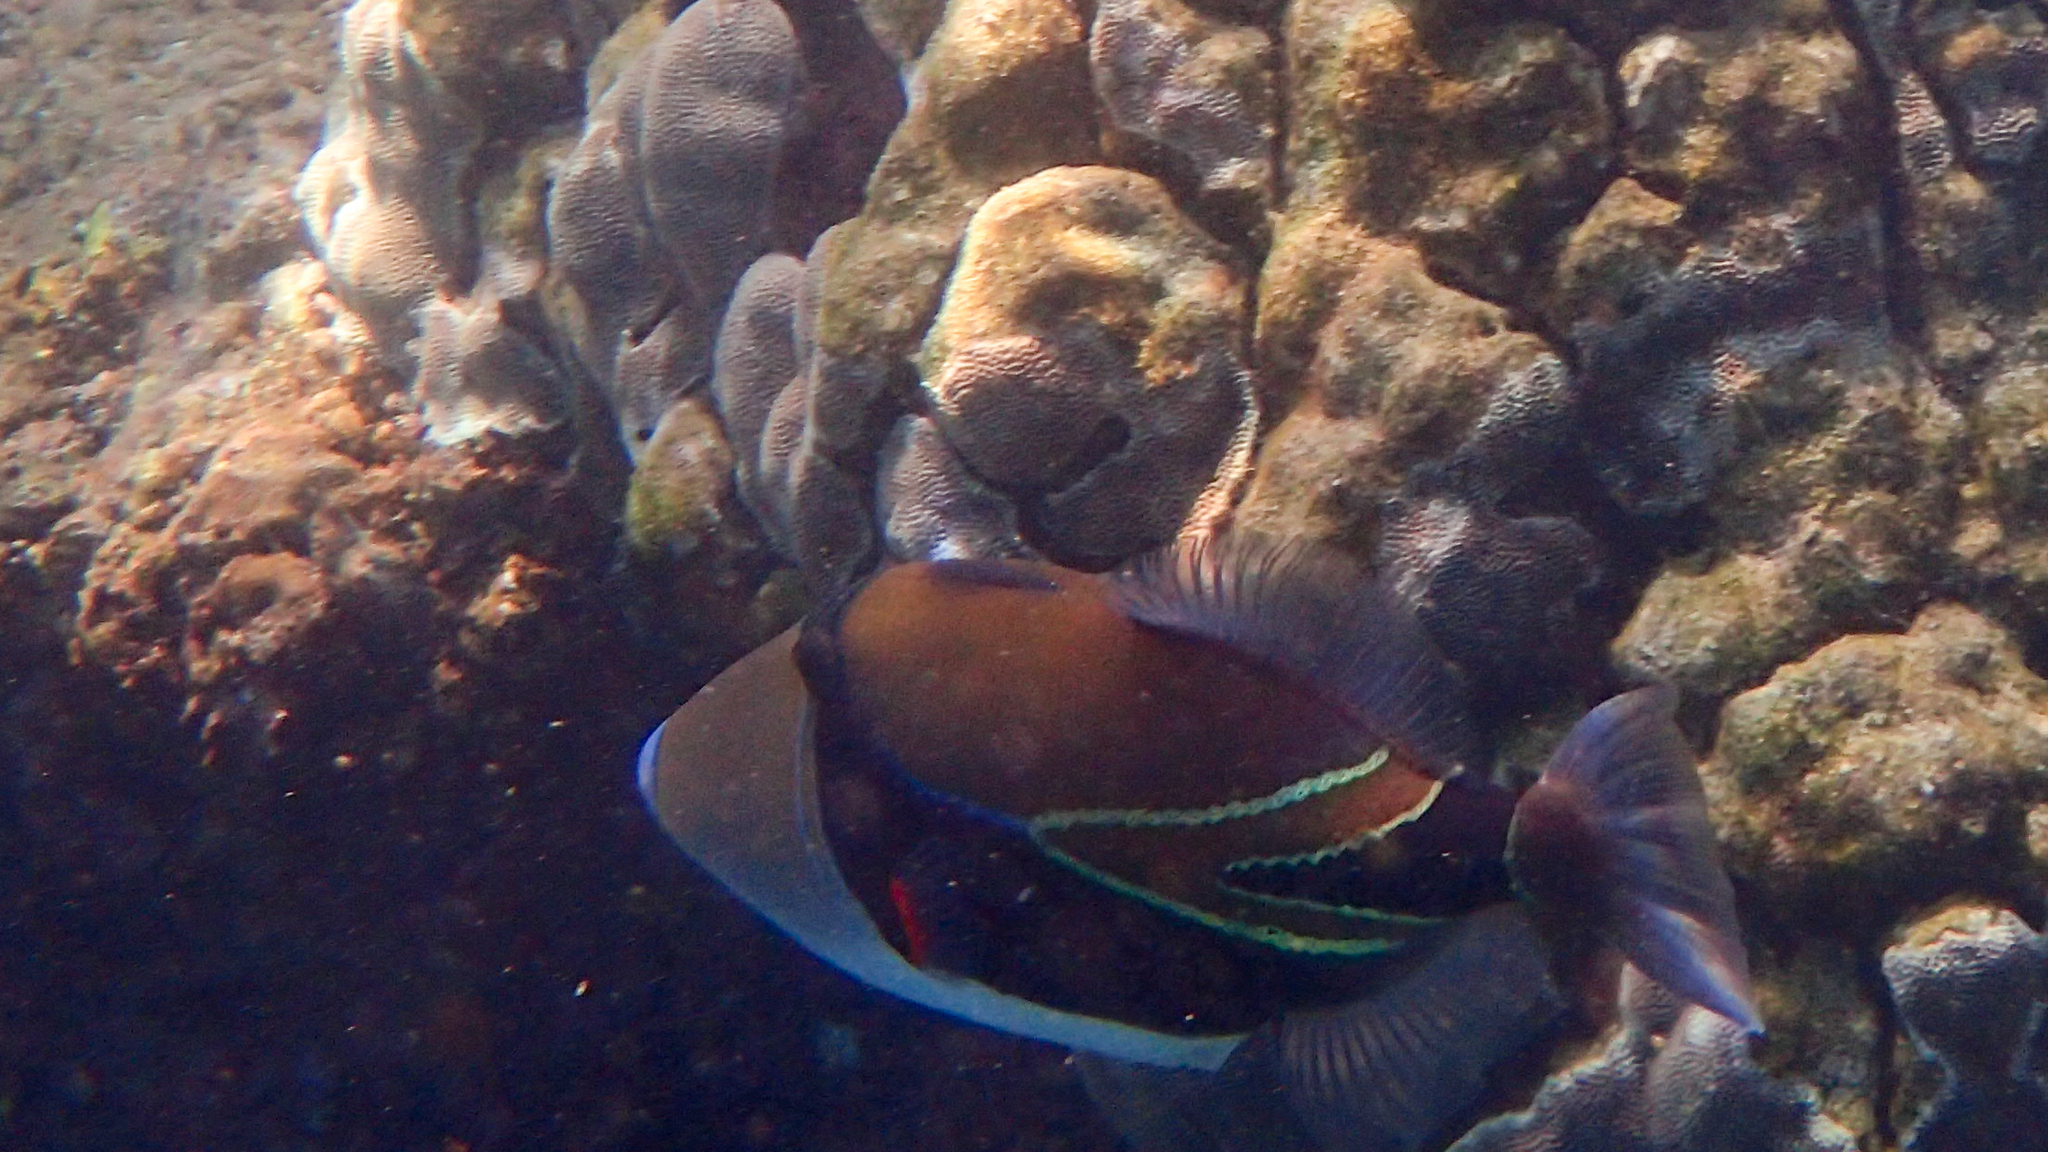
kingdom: Animalia
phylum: Chordata
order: Tetraodontiformes
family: Balistidae
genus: Rhinecanthus
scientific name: Rhinecanthus rectangulus
